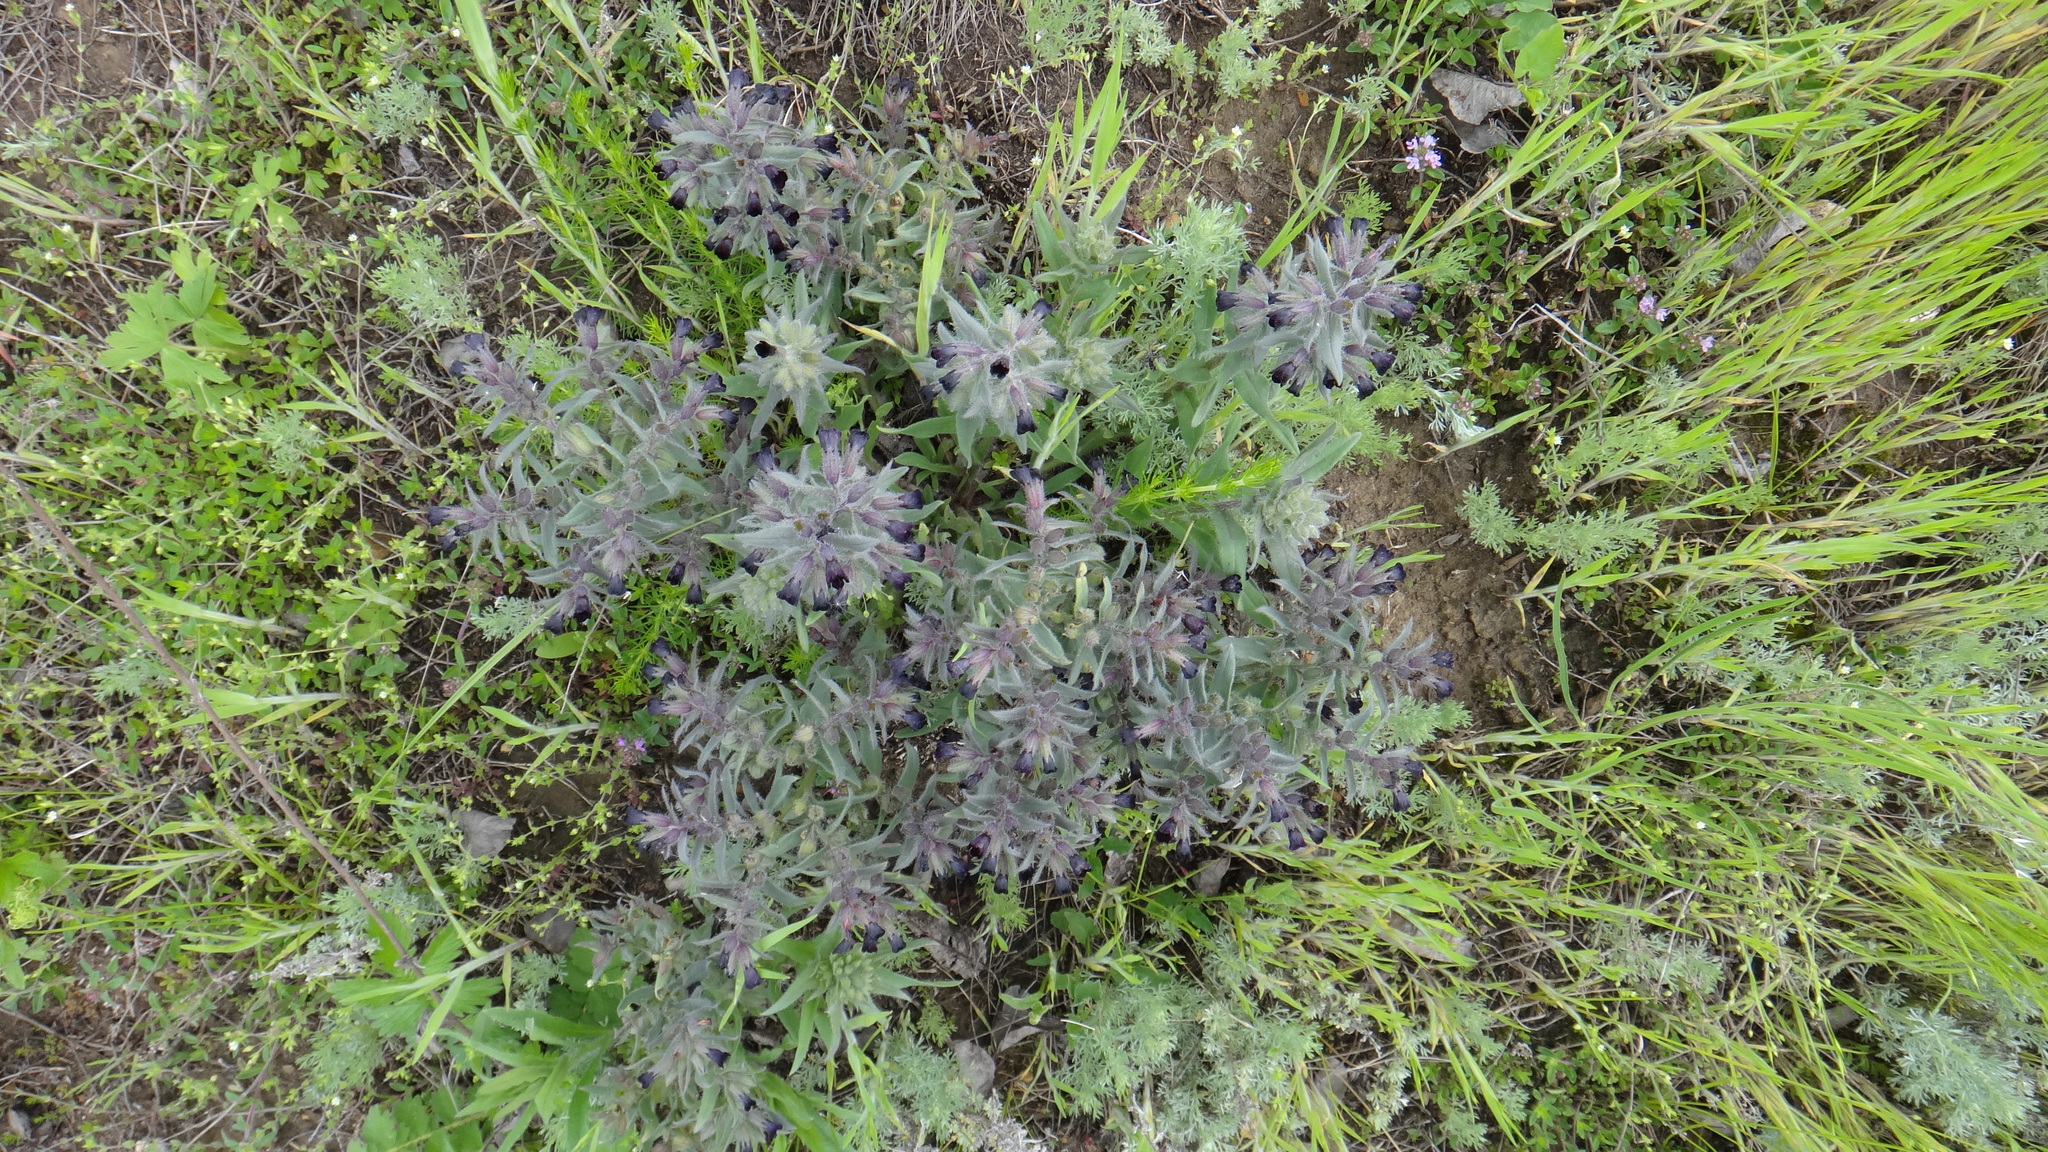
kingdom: Plantae
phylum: Tracheophyta
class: Magnoliopsida
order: Boraginales
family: Boraginaceae
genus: Nonea
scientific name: Nonea pulla
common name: Brown nonea
